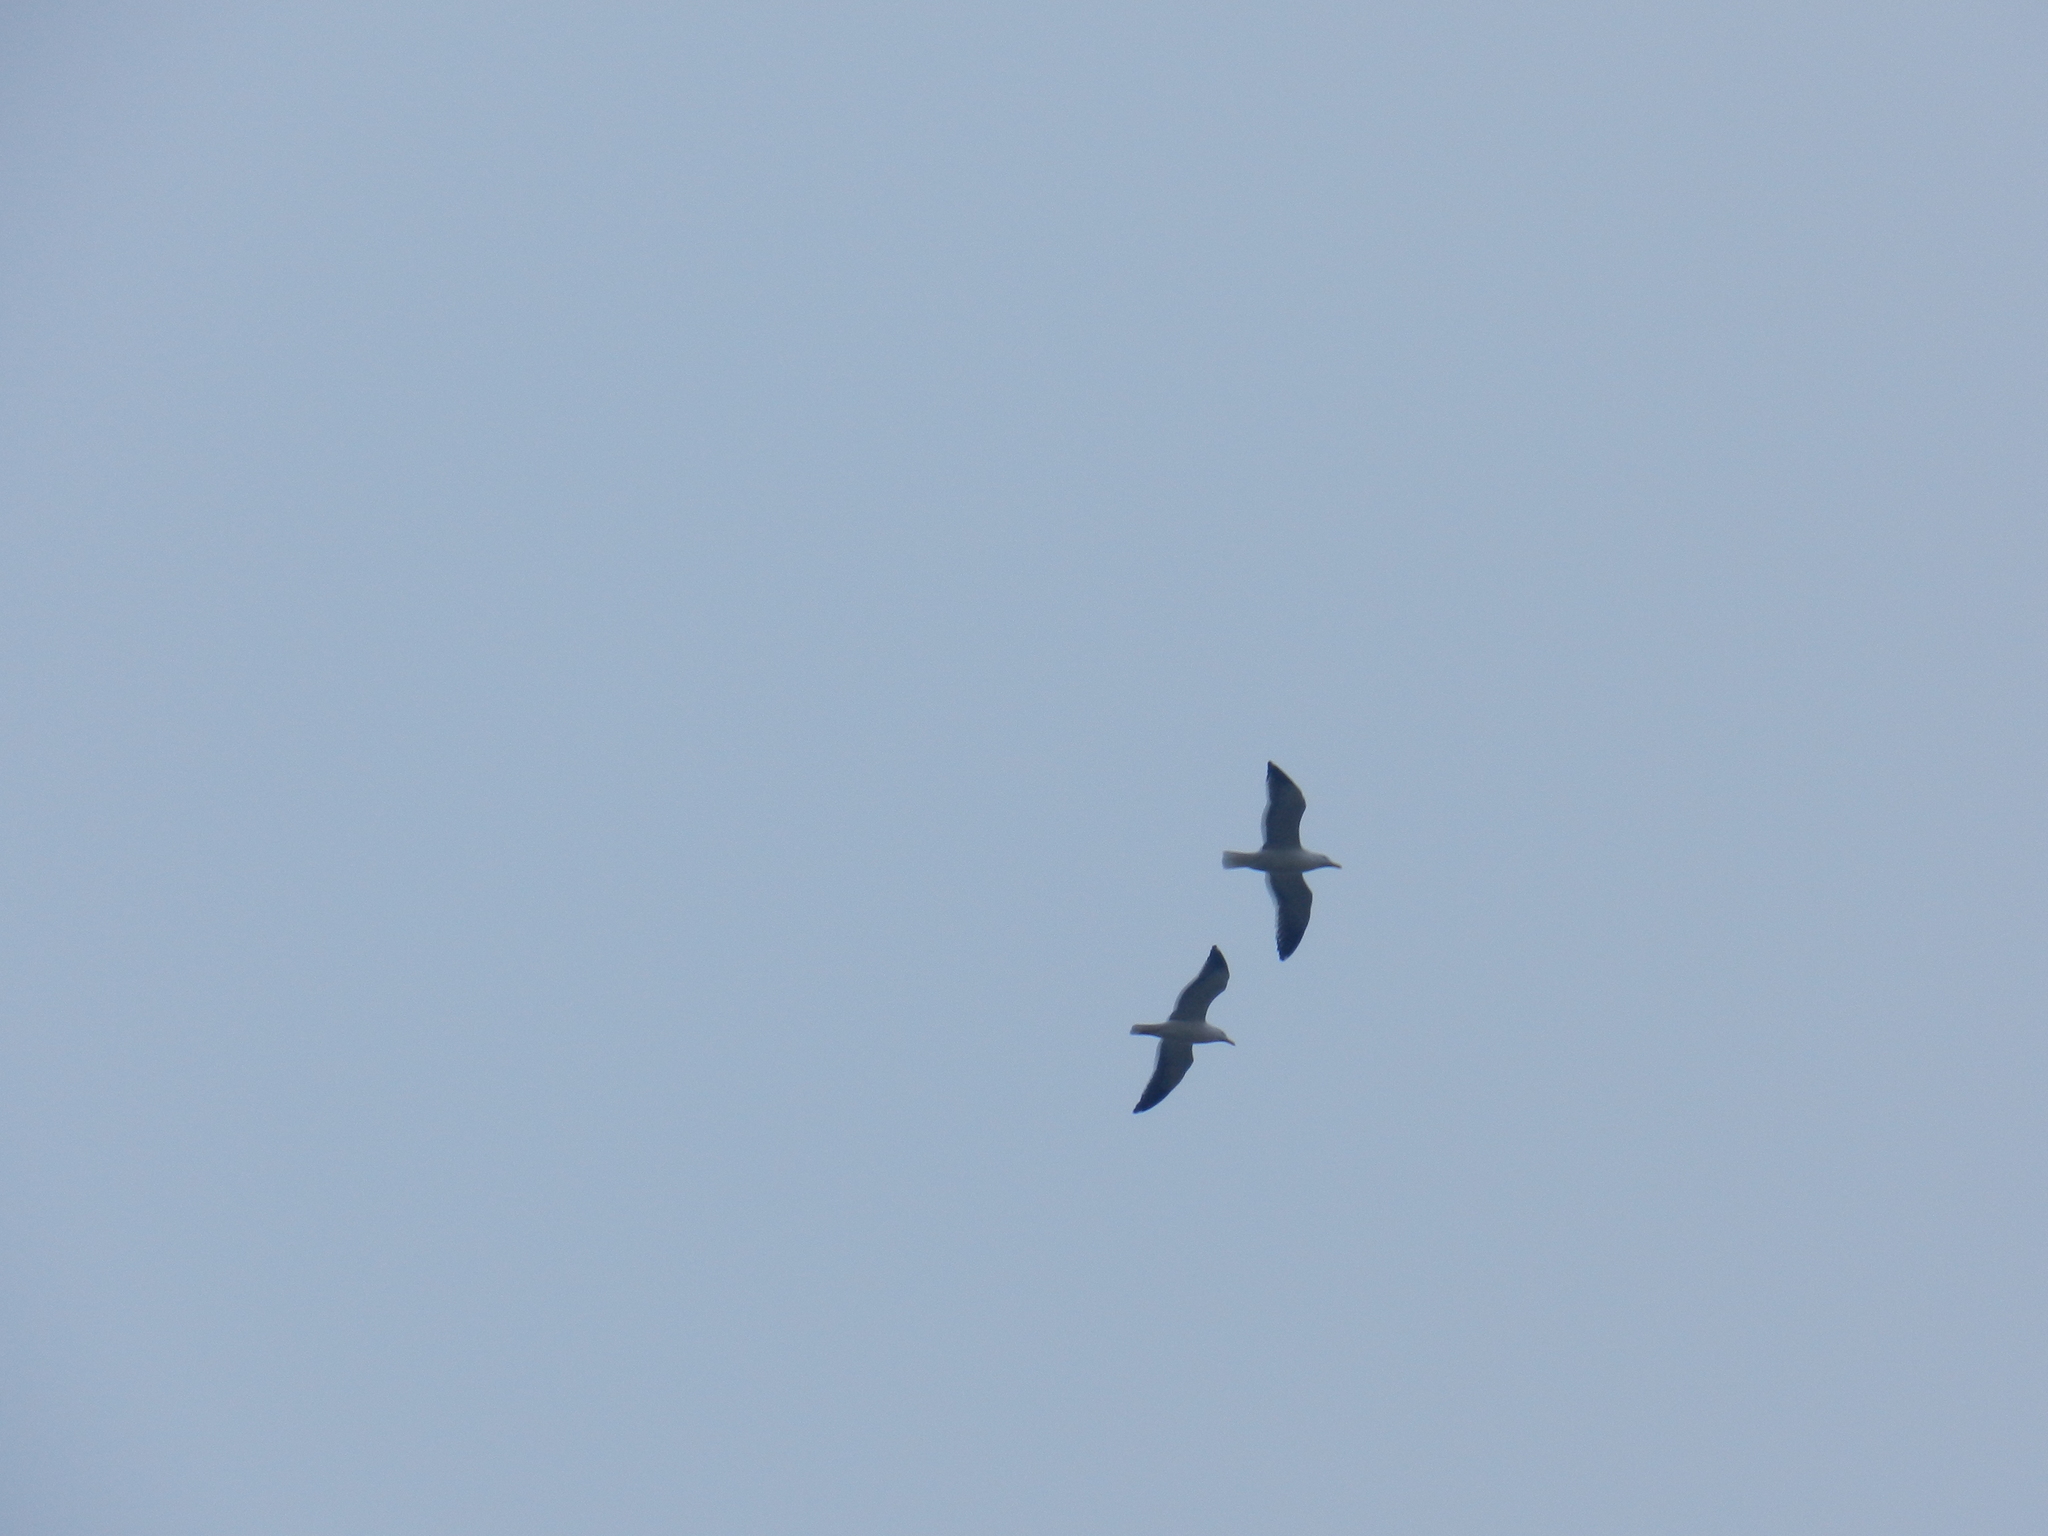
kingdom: Animalia
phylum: Chordata
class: Aves
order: Charadriiformes
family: Laridae
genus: Larus
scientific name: Larus dominicanus
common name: Kelp gull
